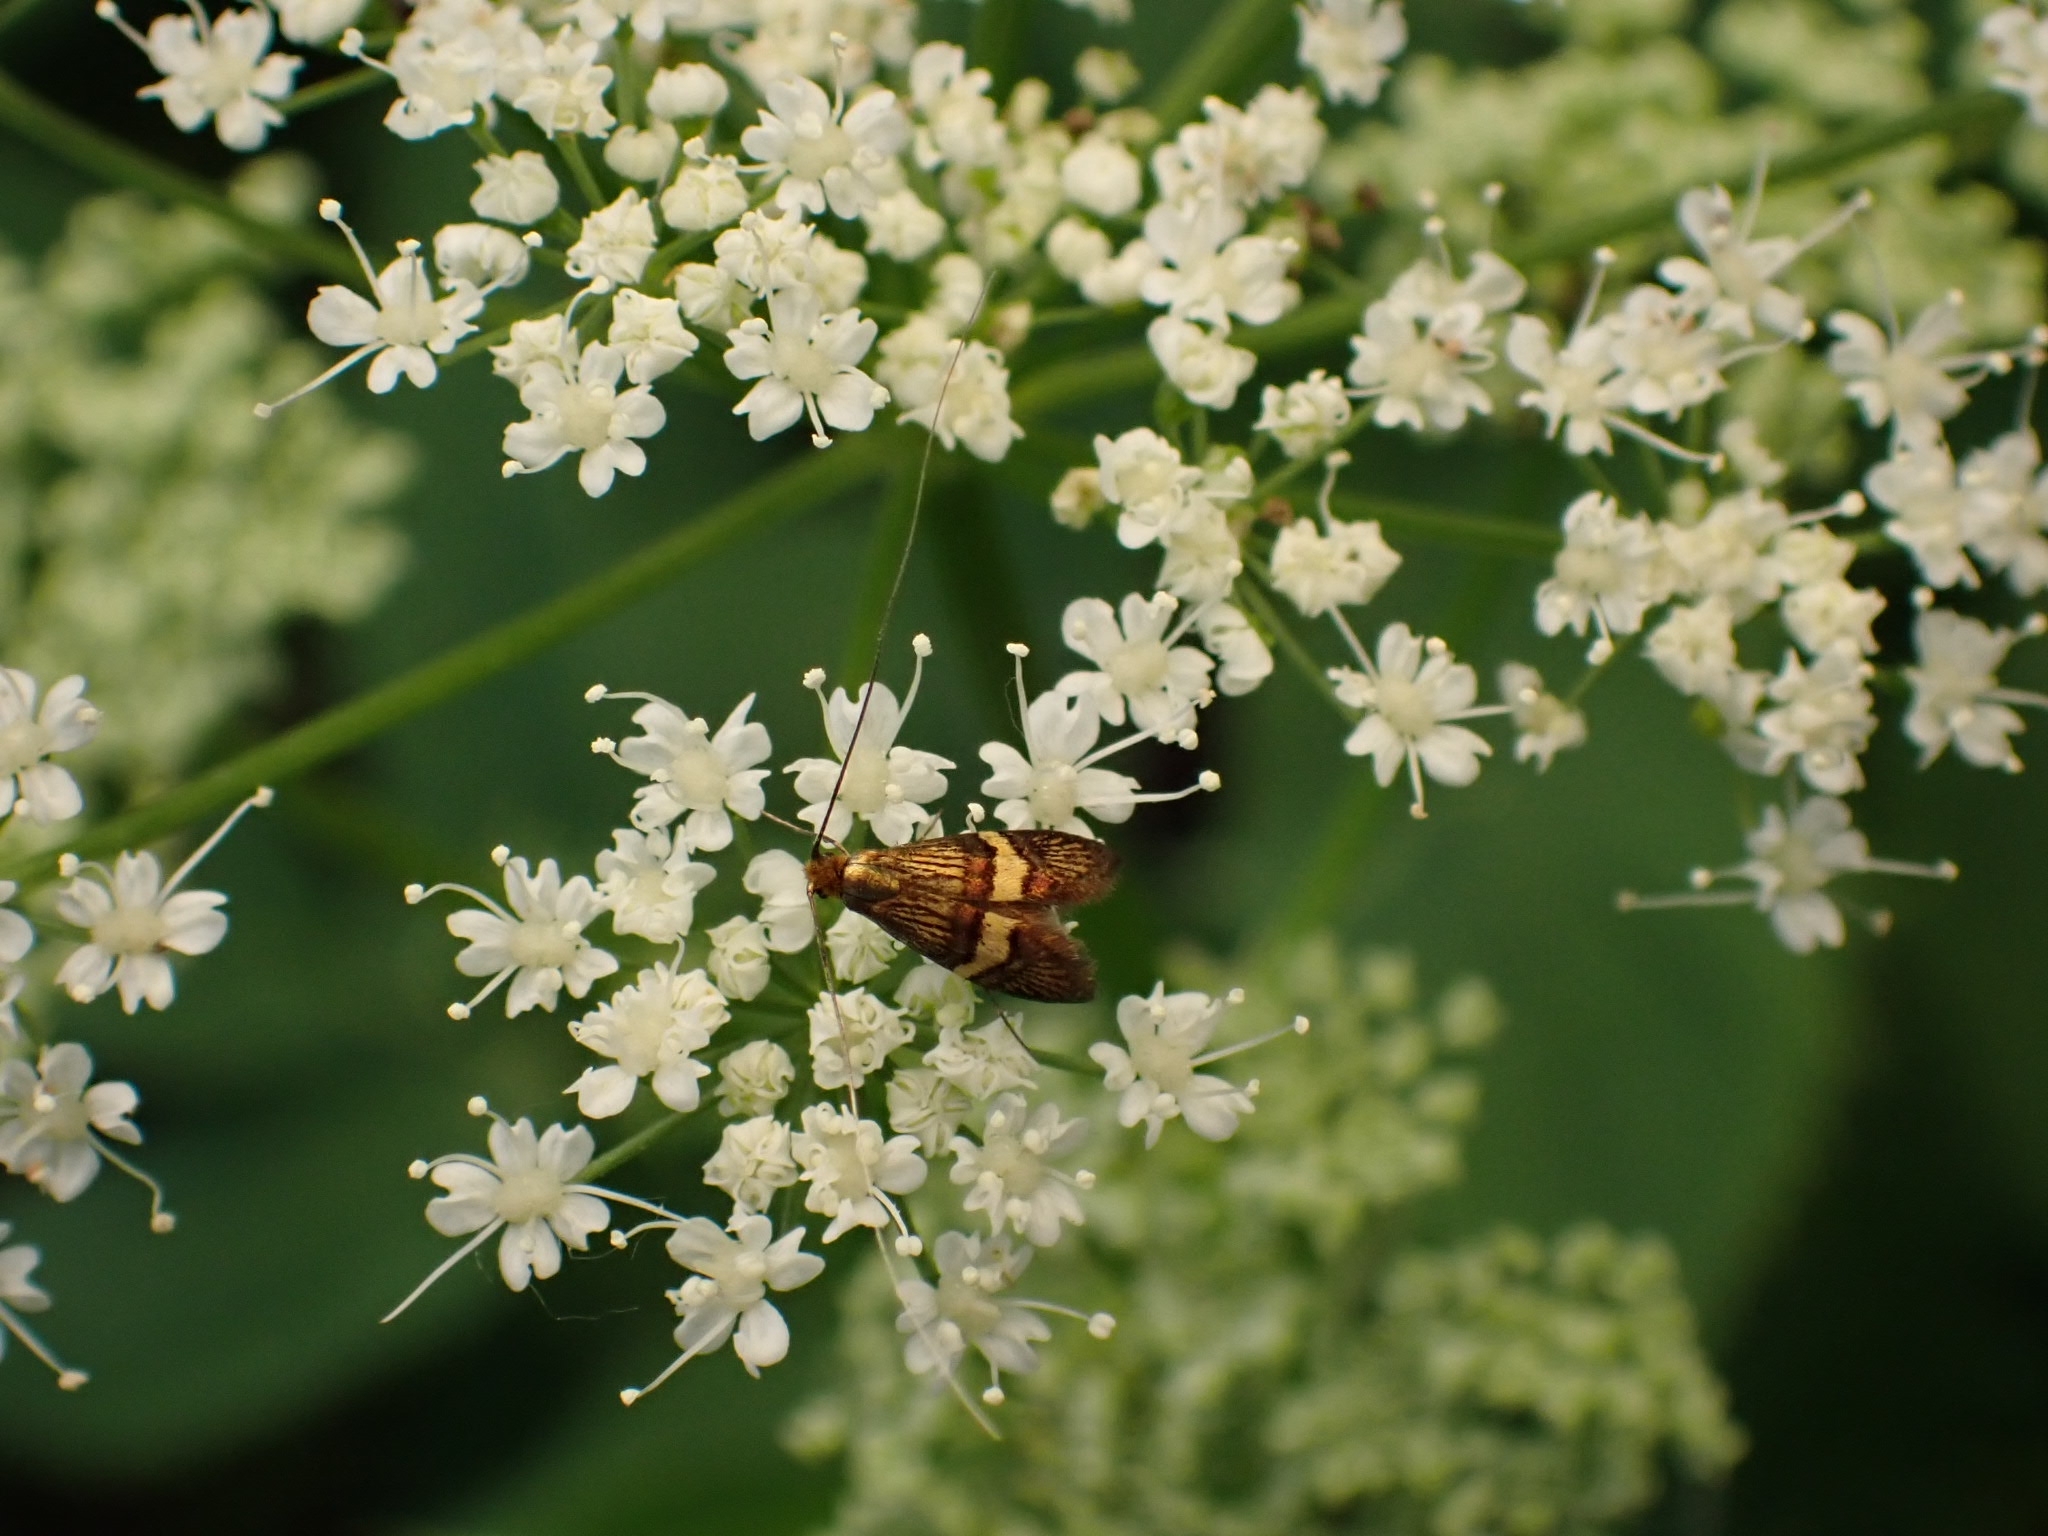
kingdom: Animalia
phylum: Arthropoda
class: Insecta
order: Lepidoptera
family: Adelidae
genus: Adela
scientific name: Adela croesella
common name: Small barred long-horn
